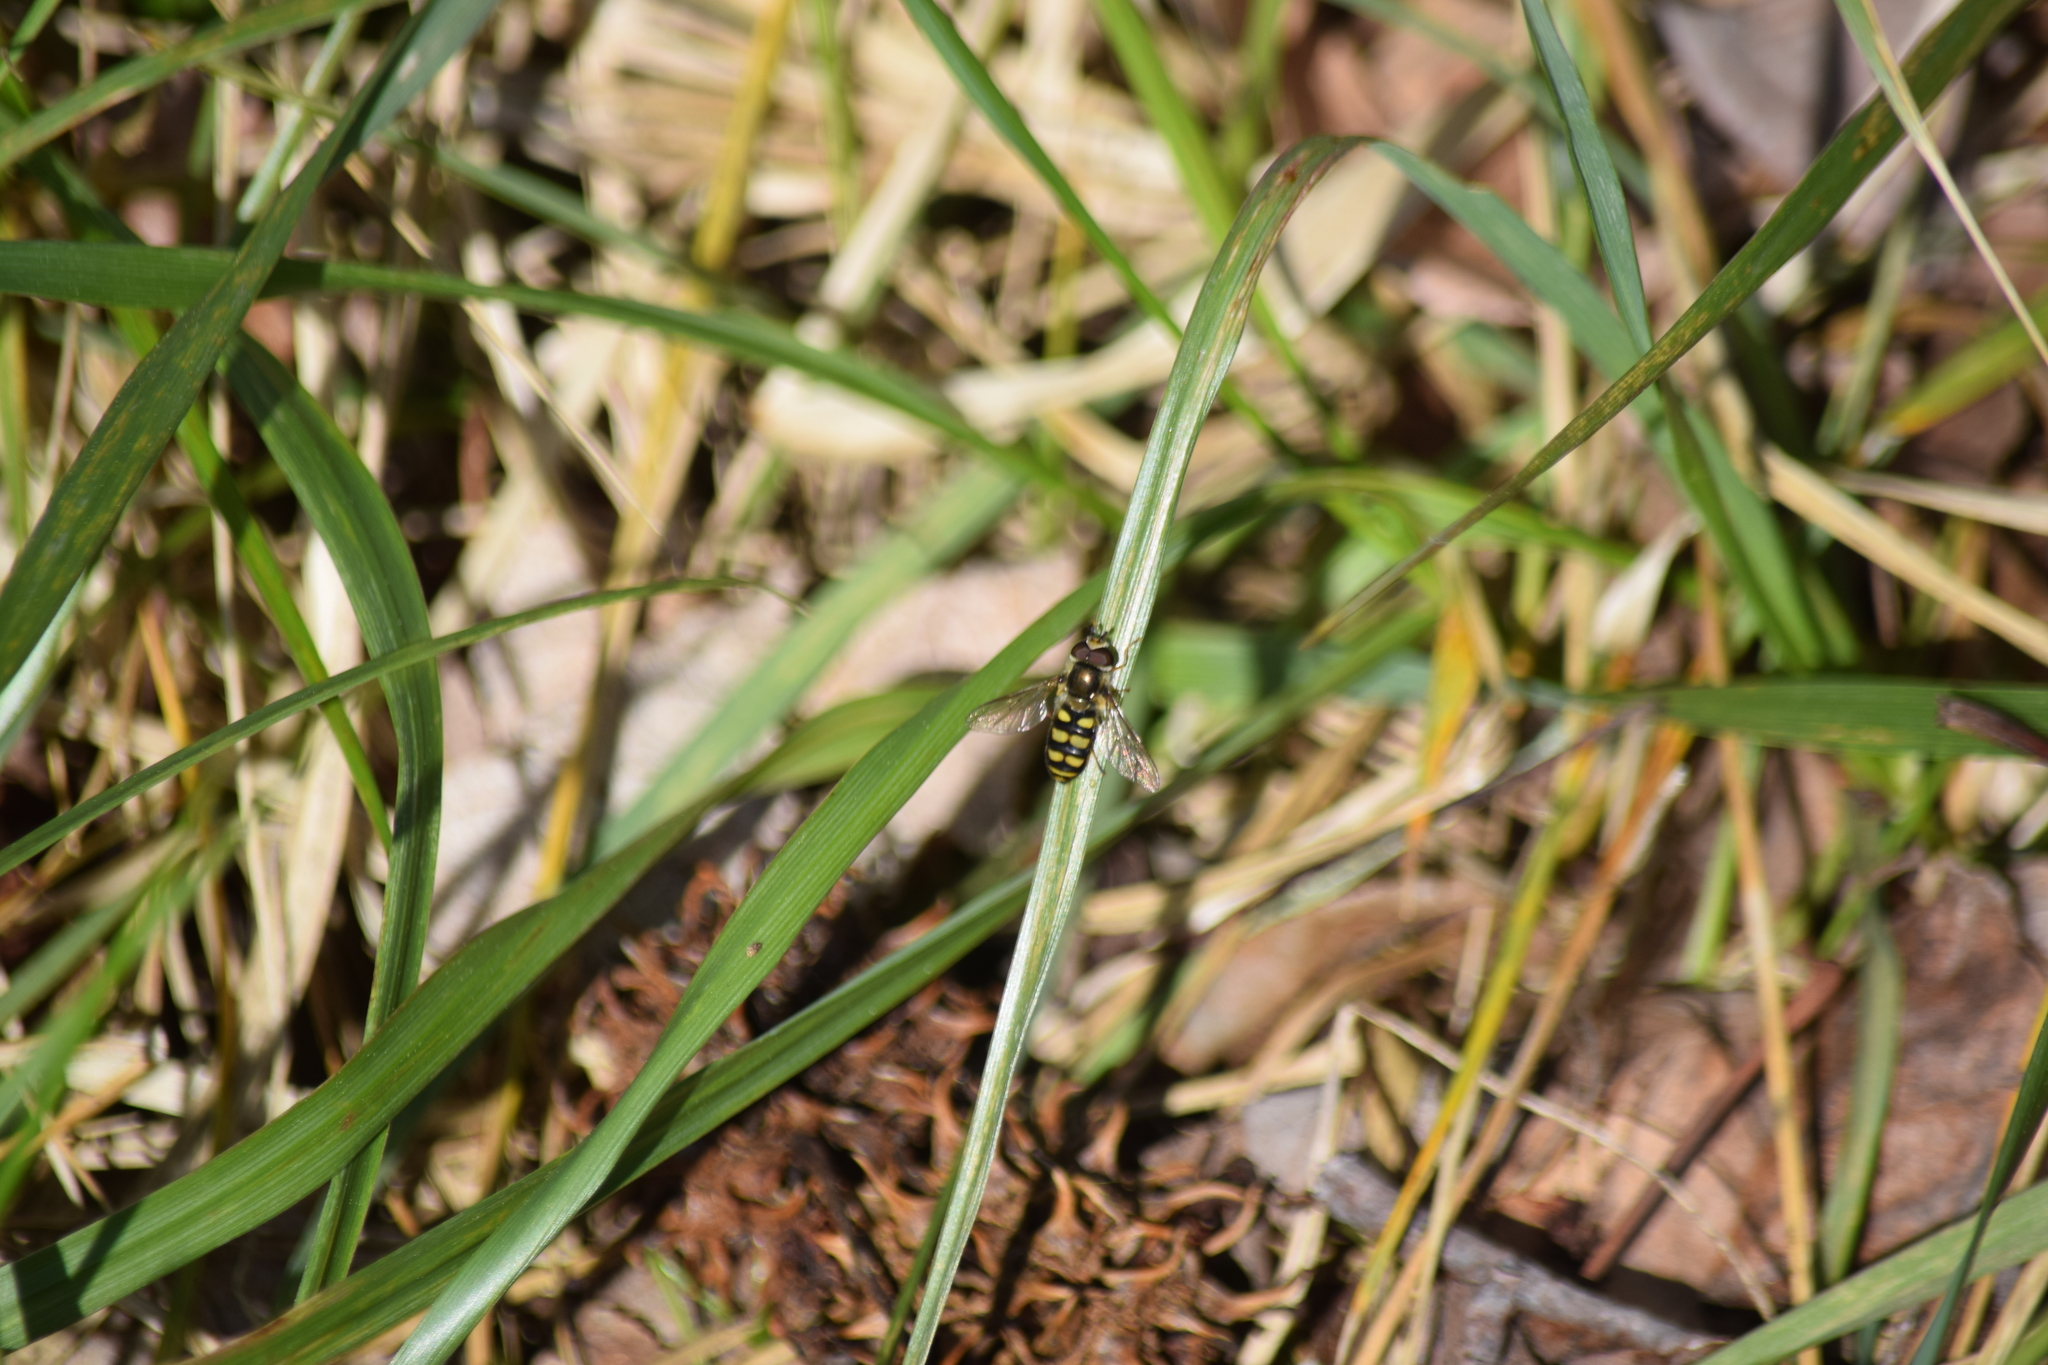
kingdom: Animalia
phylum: Arthropoda
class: Insecta
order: Diptera
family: Syrphidae
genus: Eupeodes
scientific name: Eupeodes
